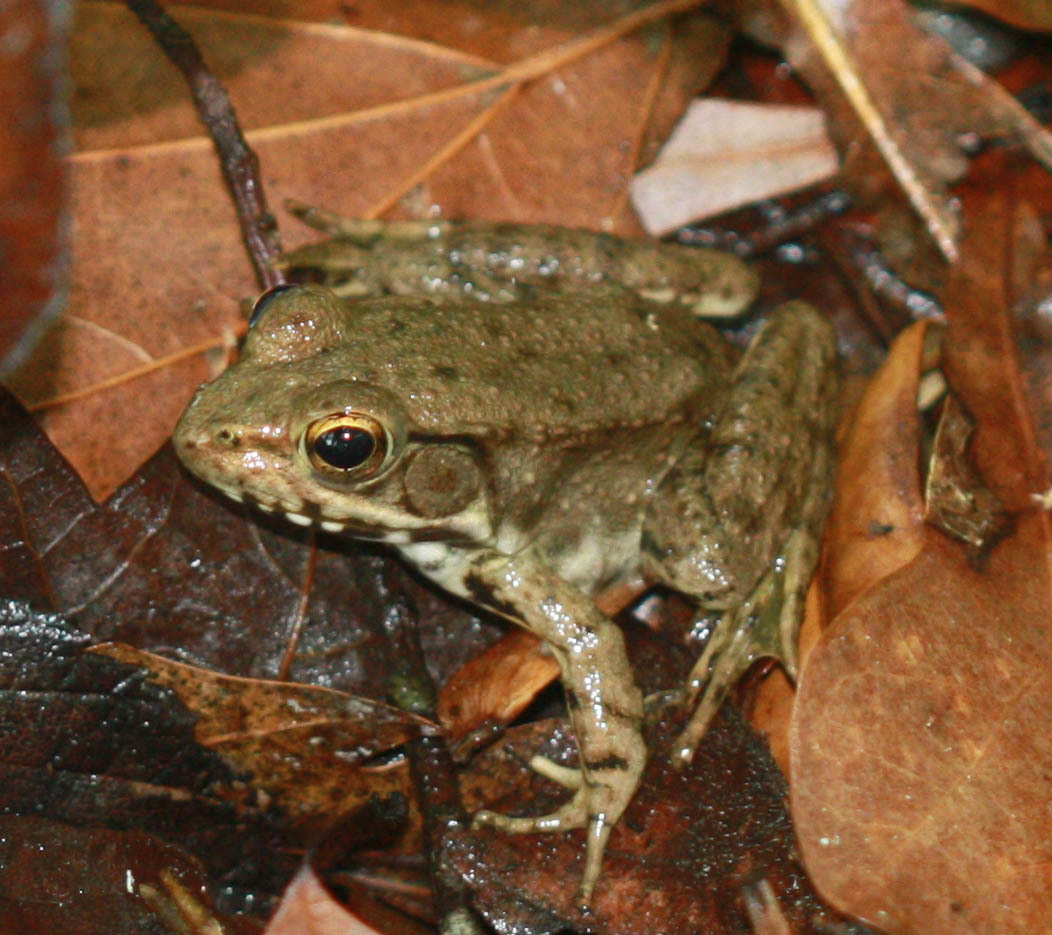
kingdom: Animalia
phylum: Chordata
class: Amphibia
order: Anura
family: Ranidae
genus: Lithobates
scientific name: Lithobates clamitans
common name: Green frog
